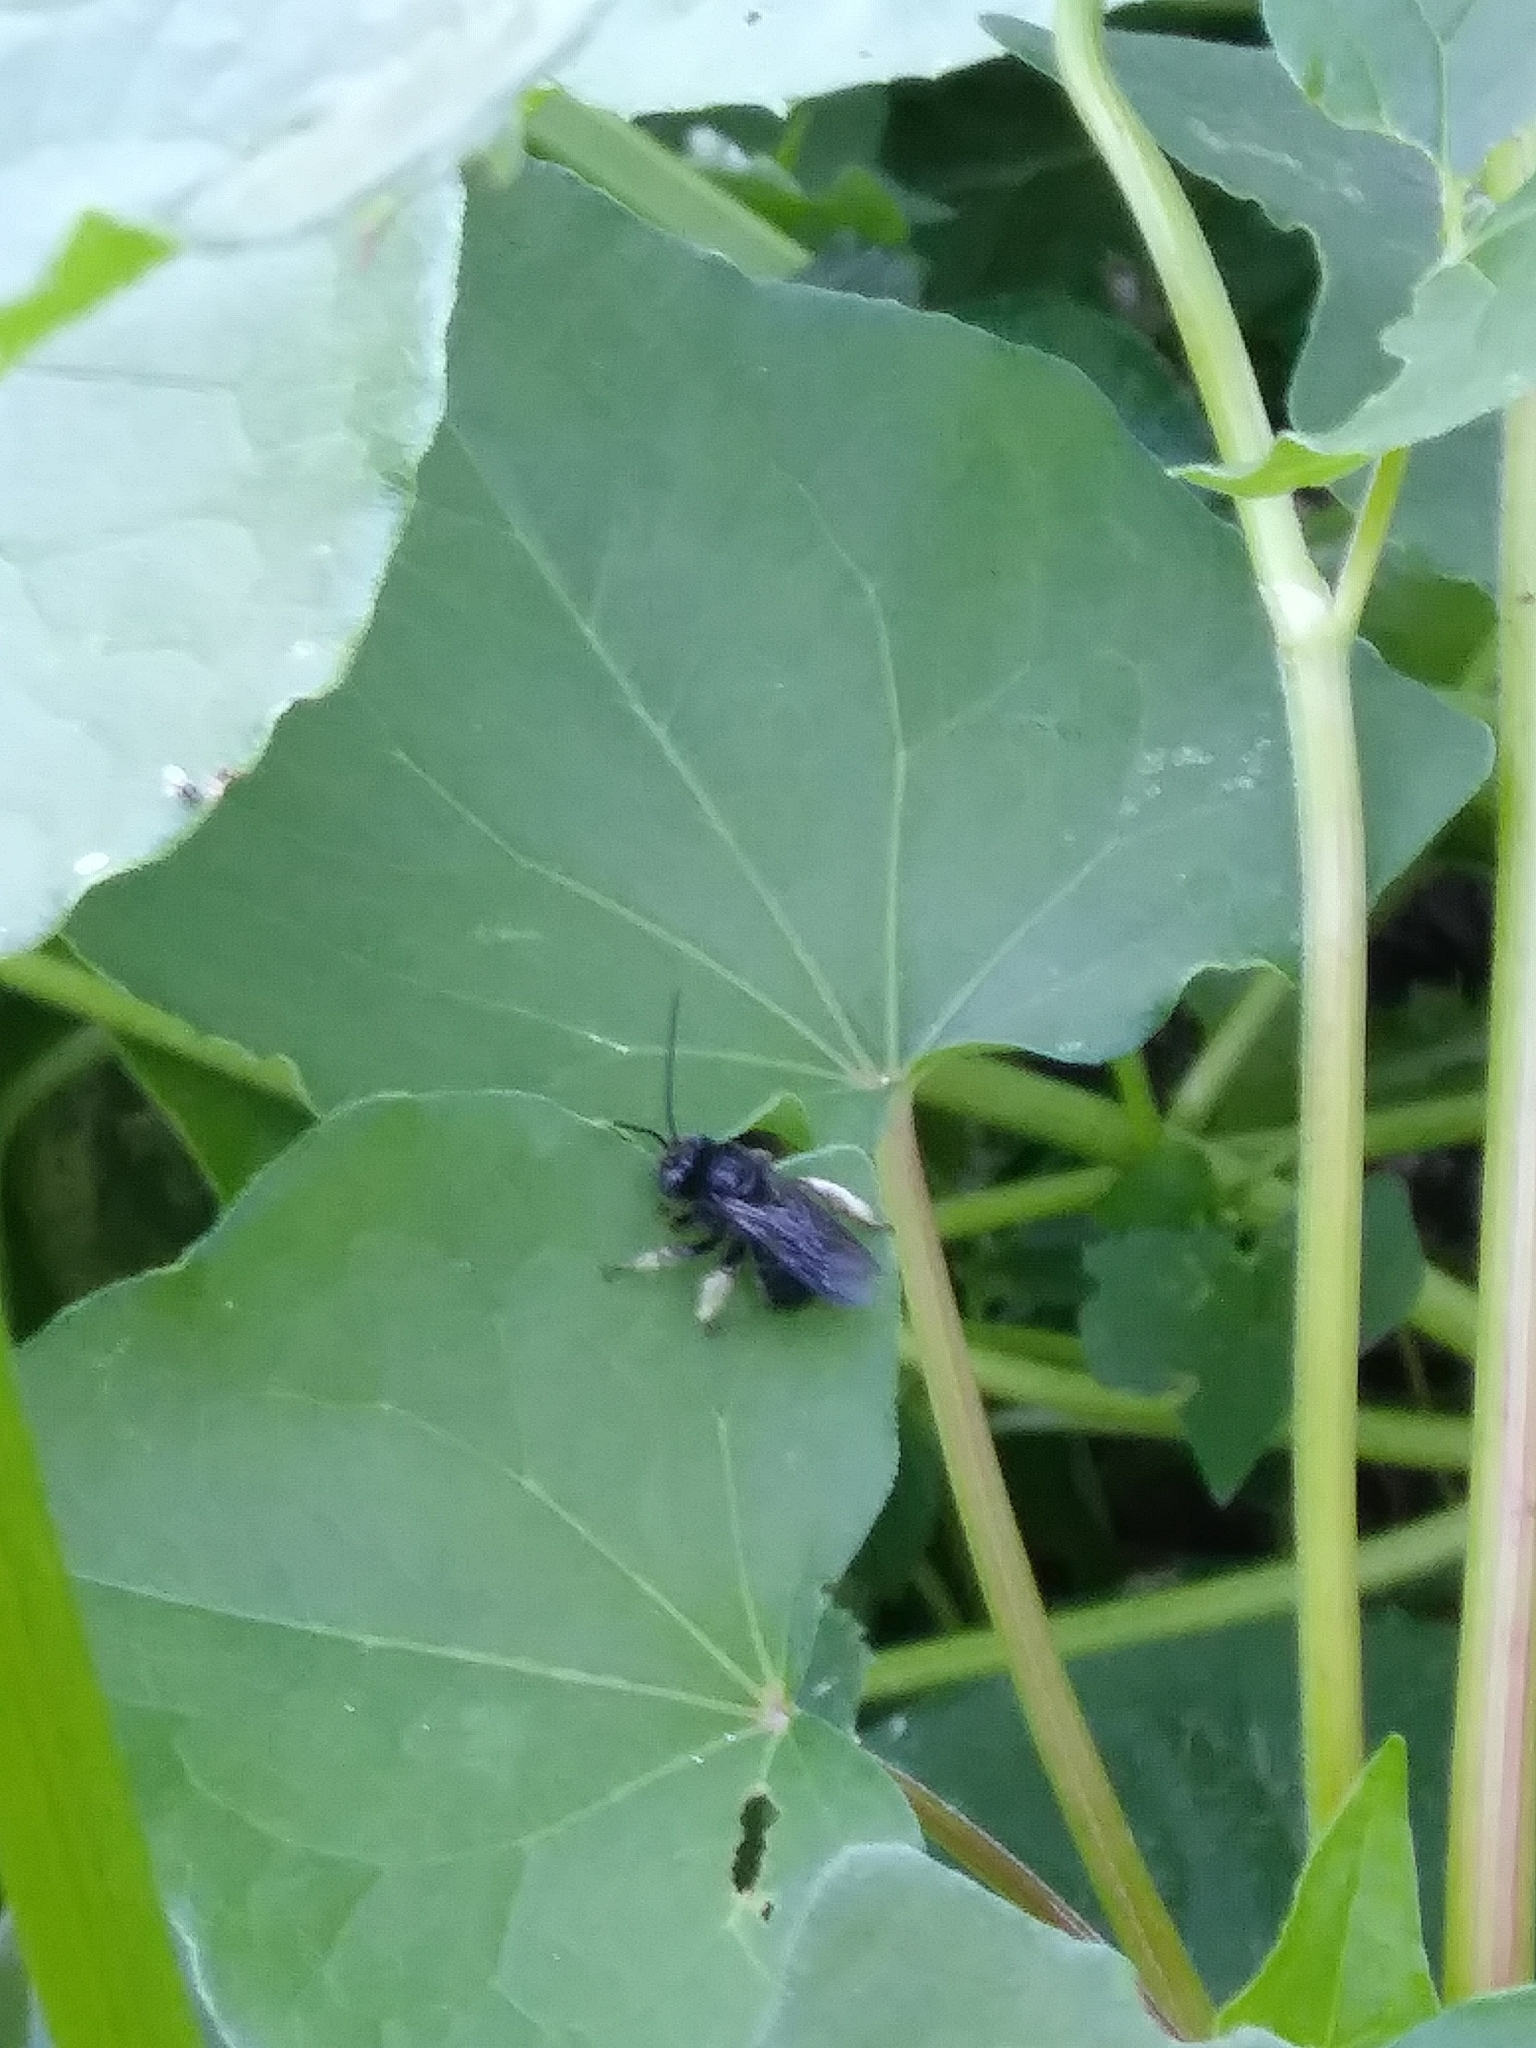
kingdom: Animalia
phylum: Arthropoda
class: Insecta
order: Hymenoptera
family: Apidae
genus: Melissodes
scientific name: Melissodes bimaculatus
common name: Two-spotted long-horned bee
